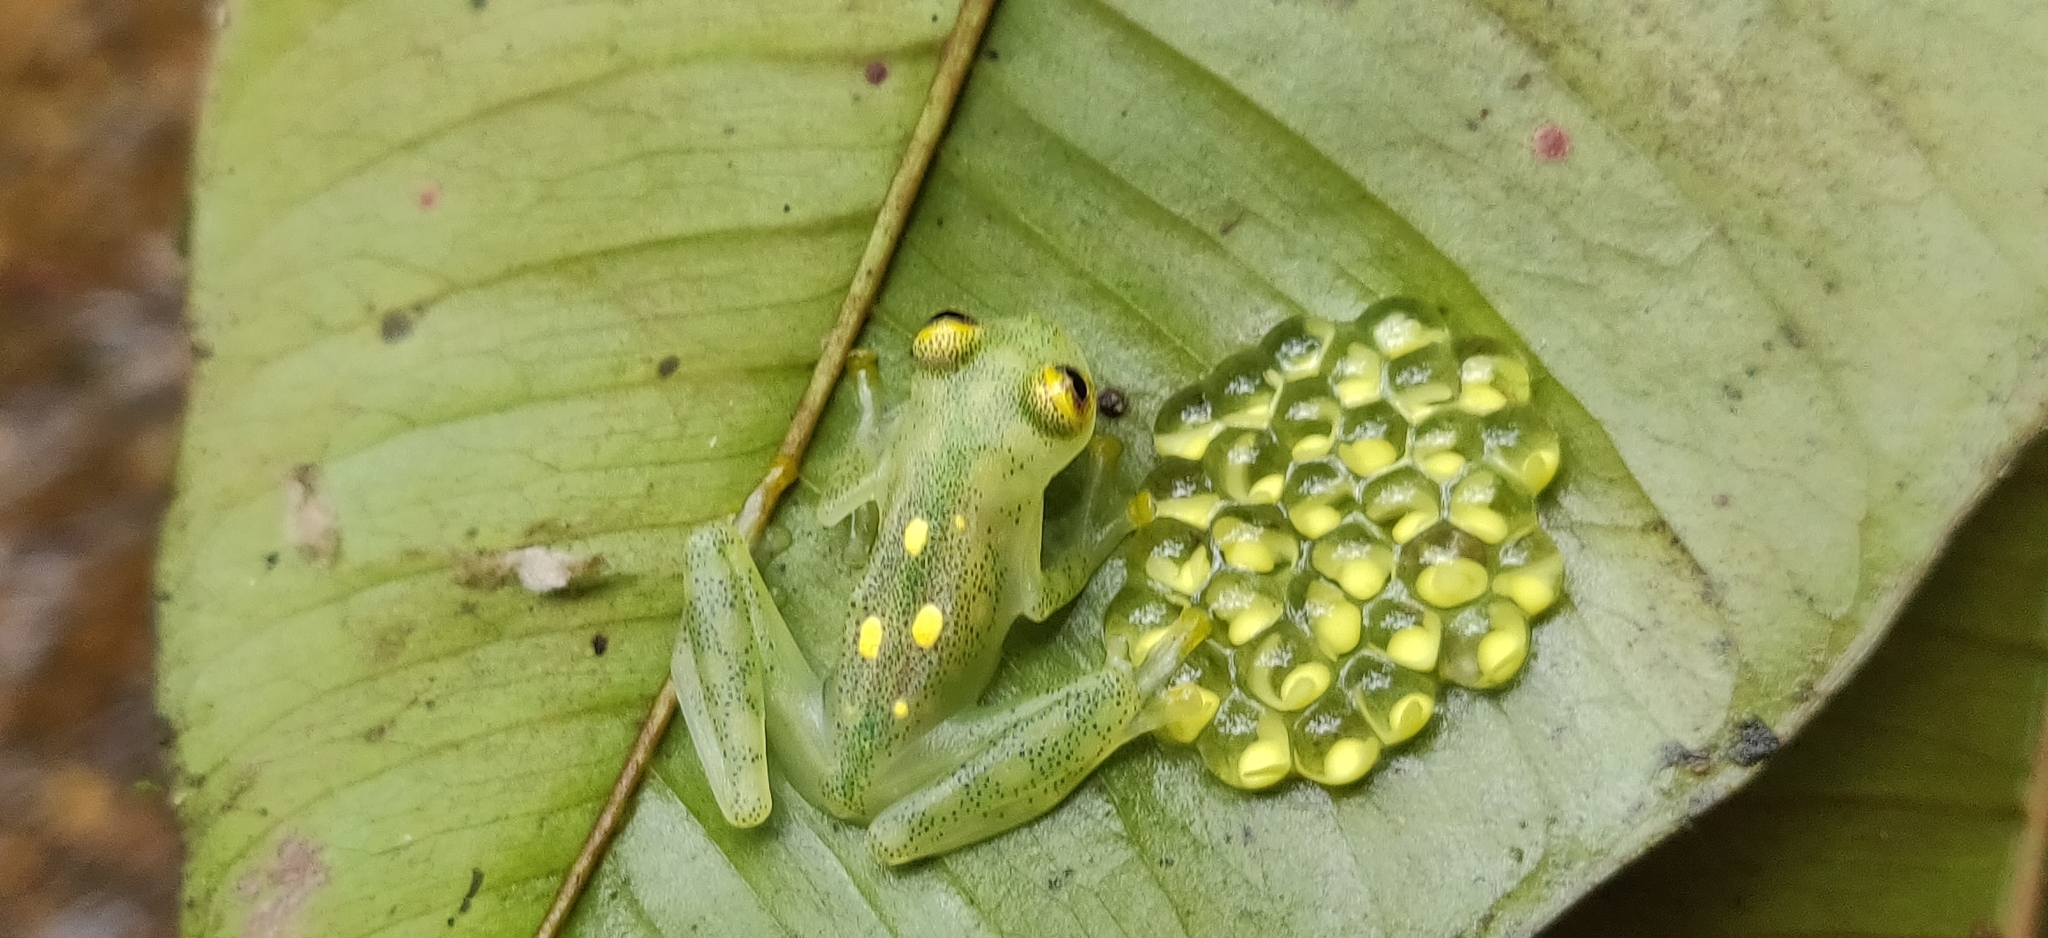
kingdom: Animalia
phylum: Chordata
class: Amphibia
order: Anura
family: Centrolenidae
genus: Hyalinobatrachium
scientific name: Hyalinobatrachium aureoguttatum
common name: Atrato glass frog
